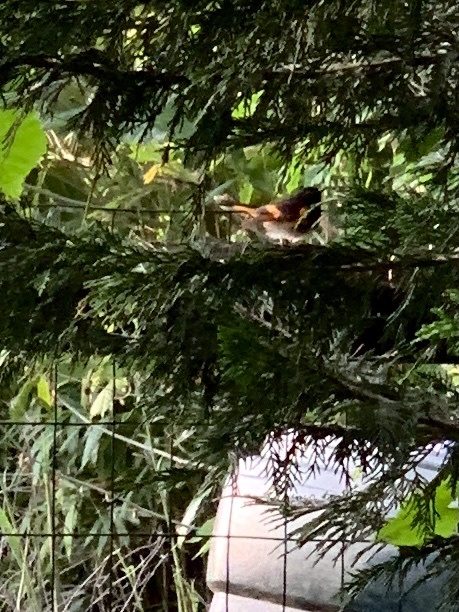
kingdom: Animalia
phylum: Chordata
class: Aves
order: Passeriformes
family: Parulidae
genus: Setophaga
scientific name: Setophaga ruticilla
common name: American redstart
